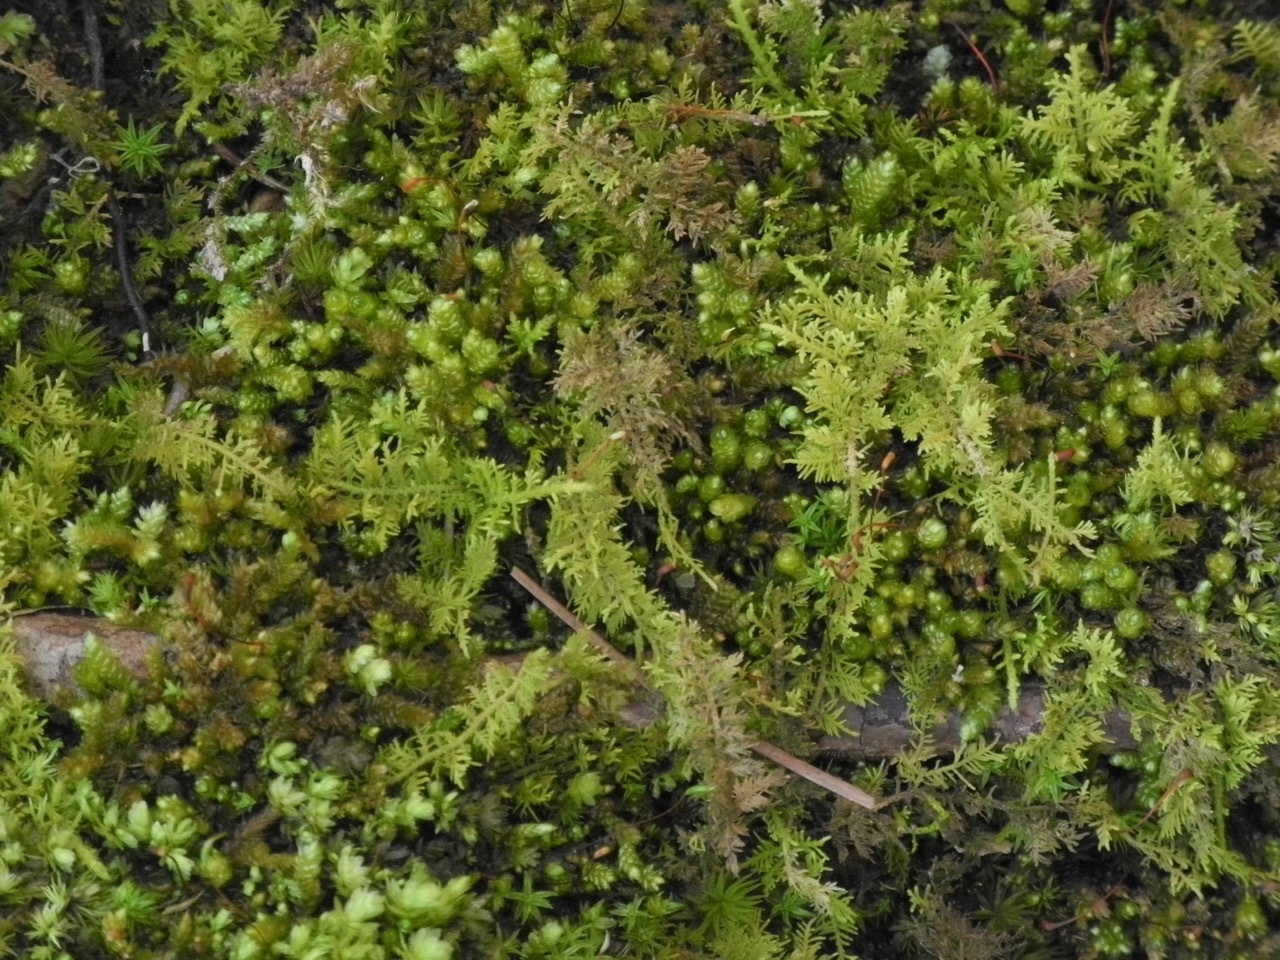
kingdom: Plantae
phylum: Bryophyta
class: Bryopsida
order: Hypnales
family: Thuidiaceae
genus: Thuidium
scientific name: Thuidium delicatulum
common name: Delicate fern moss
